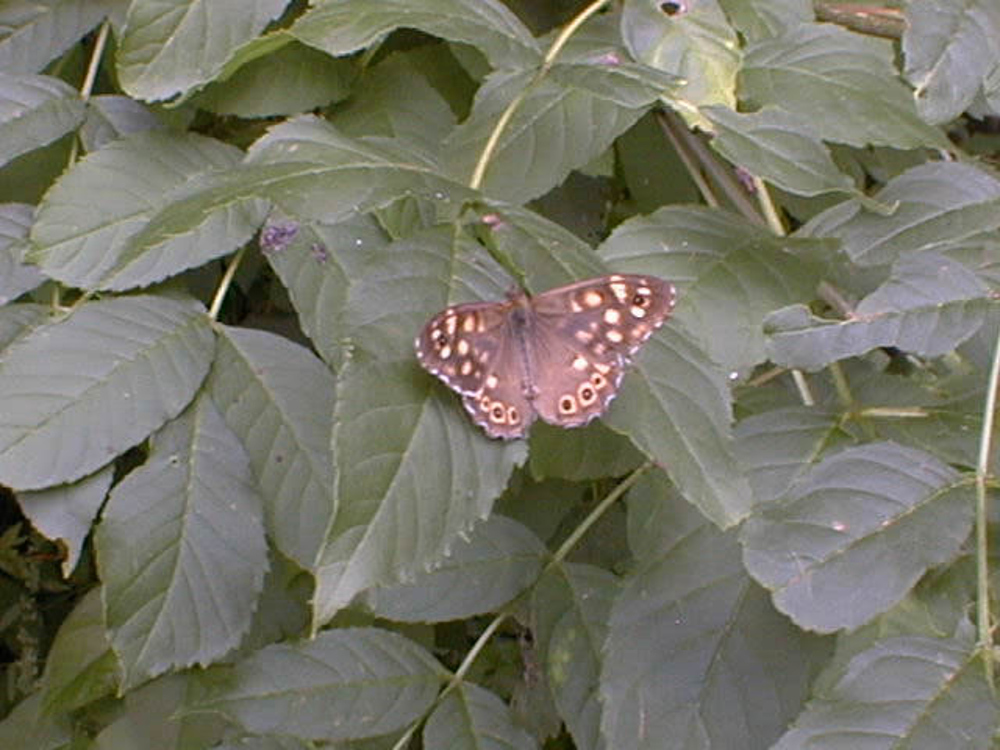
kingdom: Animalia
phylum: Arthropoda
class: Insecta
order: Lepidoptera
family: Nymphalidae
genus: Pararge
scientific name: Pararge aegeria
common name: Speckled wood
